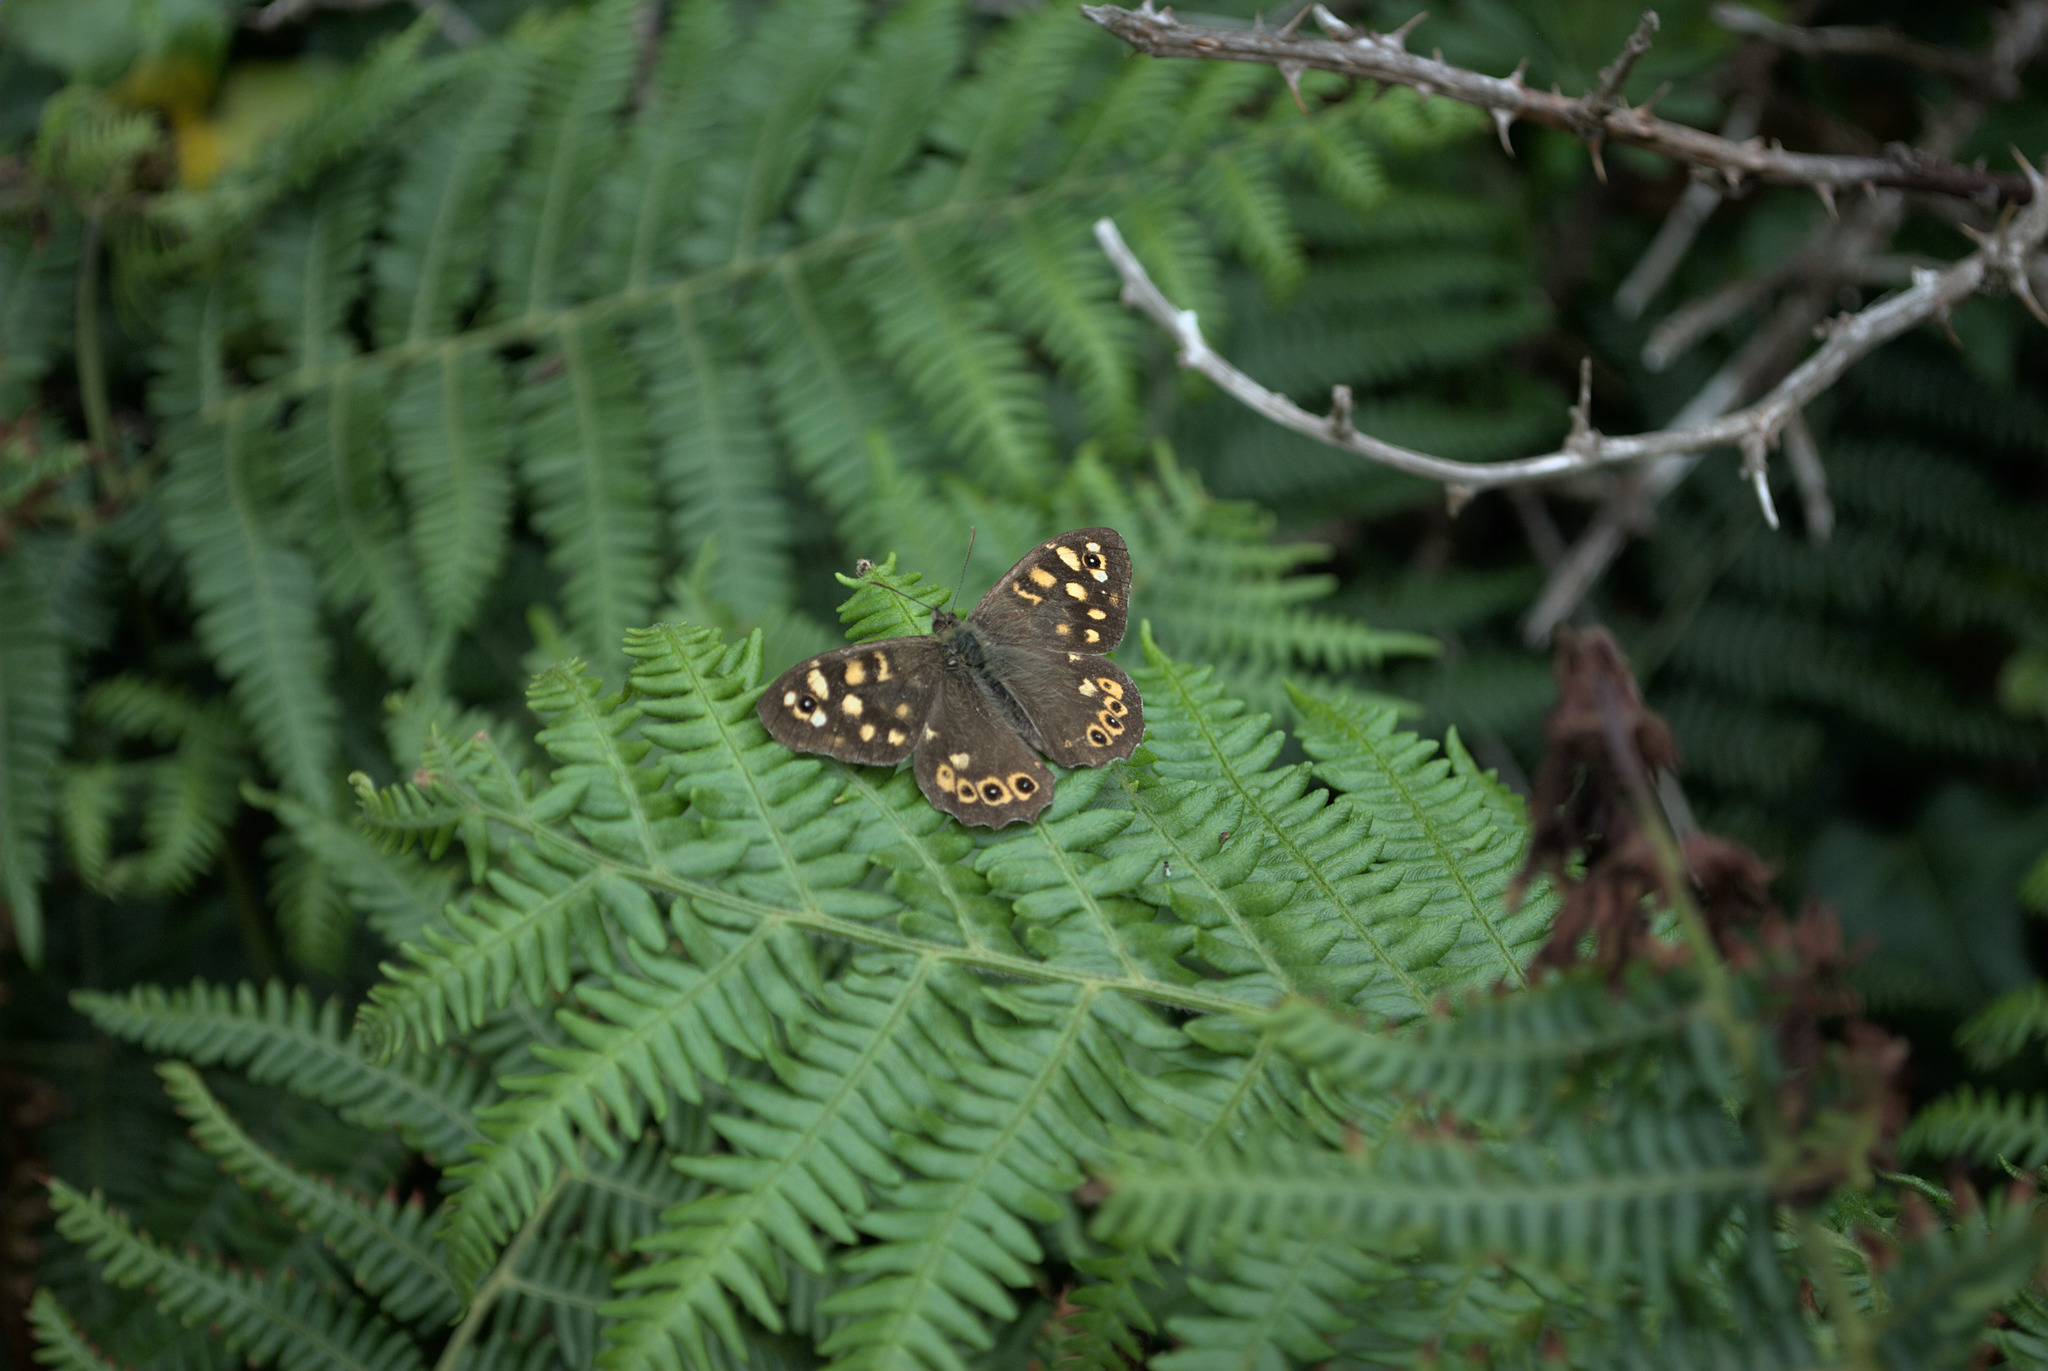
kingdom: Animalia
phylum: Arthropoda
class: Insecta
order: Lepidoptera
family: Nymphalidae
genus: Pararge
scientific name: Pararge aegeria
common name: Speckled wood
